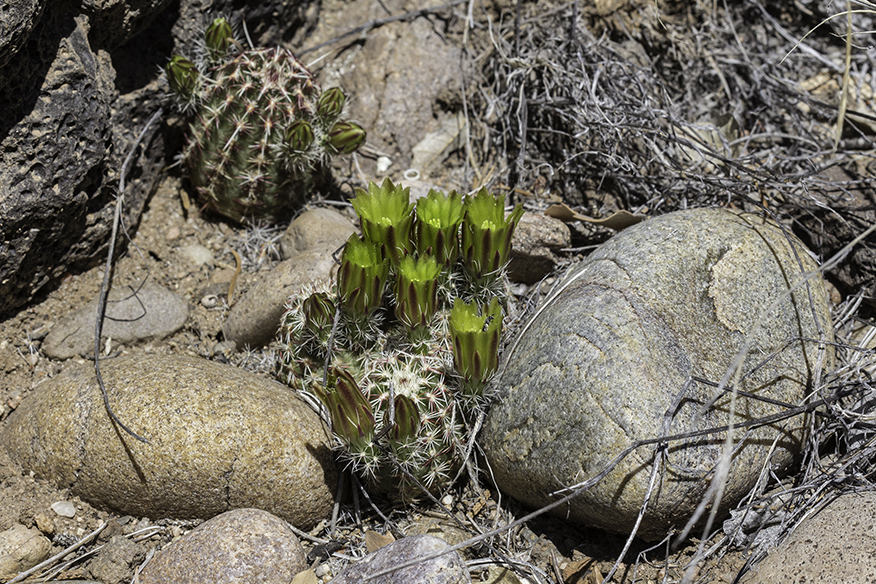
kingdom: Plantae
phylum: Tracheophyta
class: Magnoliopsida
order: Caryophyllales
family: Cactaceae
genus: Echinocereus
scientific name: Echinocereus viridiflorus
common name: Nylon hedgehog cactus
